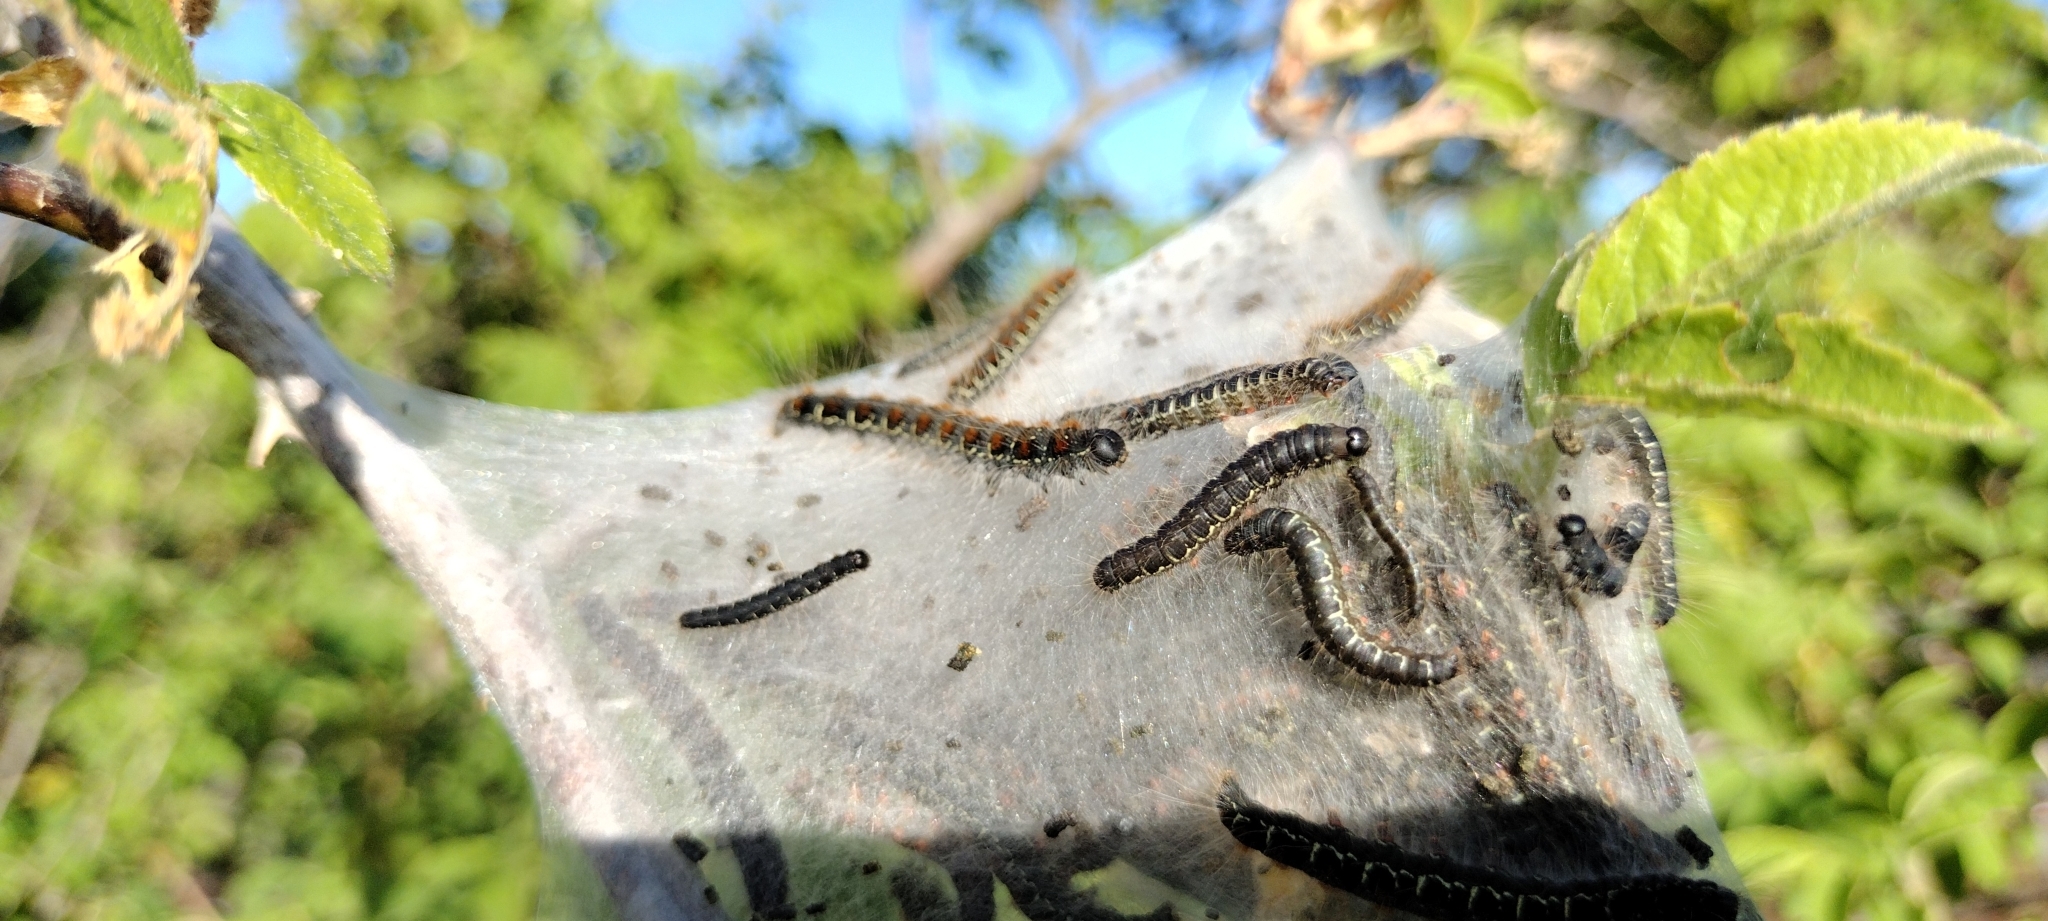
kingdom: Animalia
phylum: Arthropoda
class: Insecta
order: Lepidoptera
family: Lasiocampidae
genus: Eriogaster
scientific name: Eriogaster lanestris
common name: Small eggar
